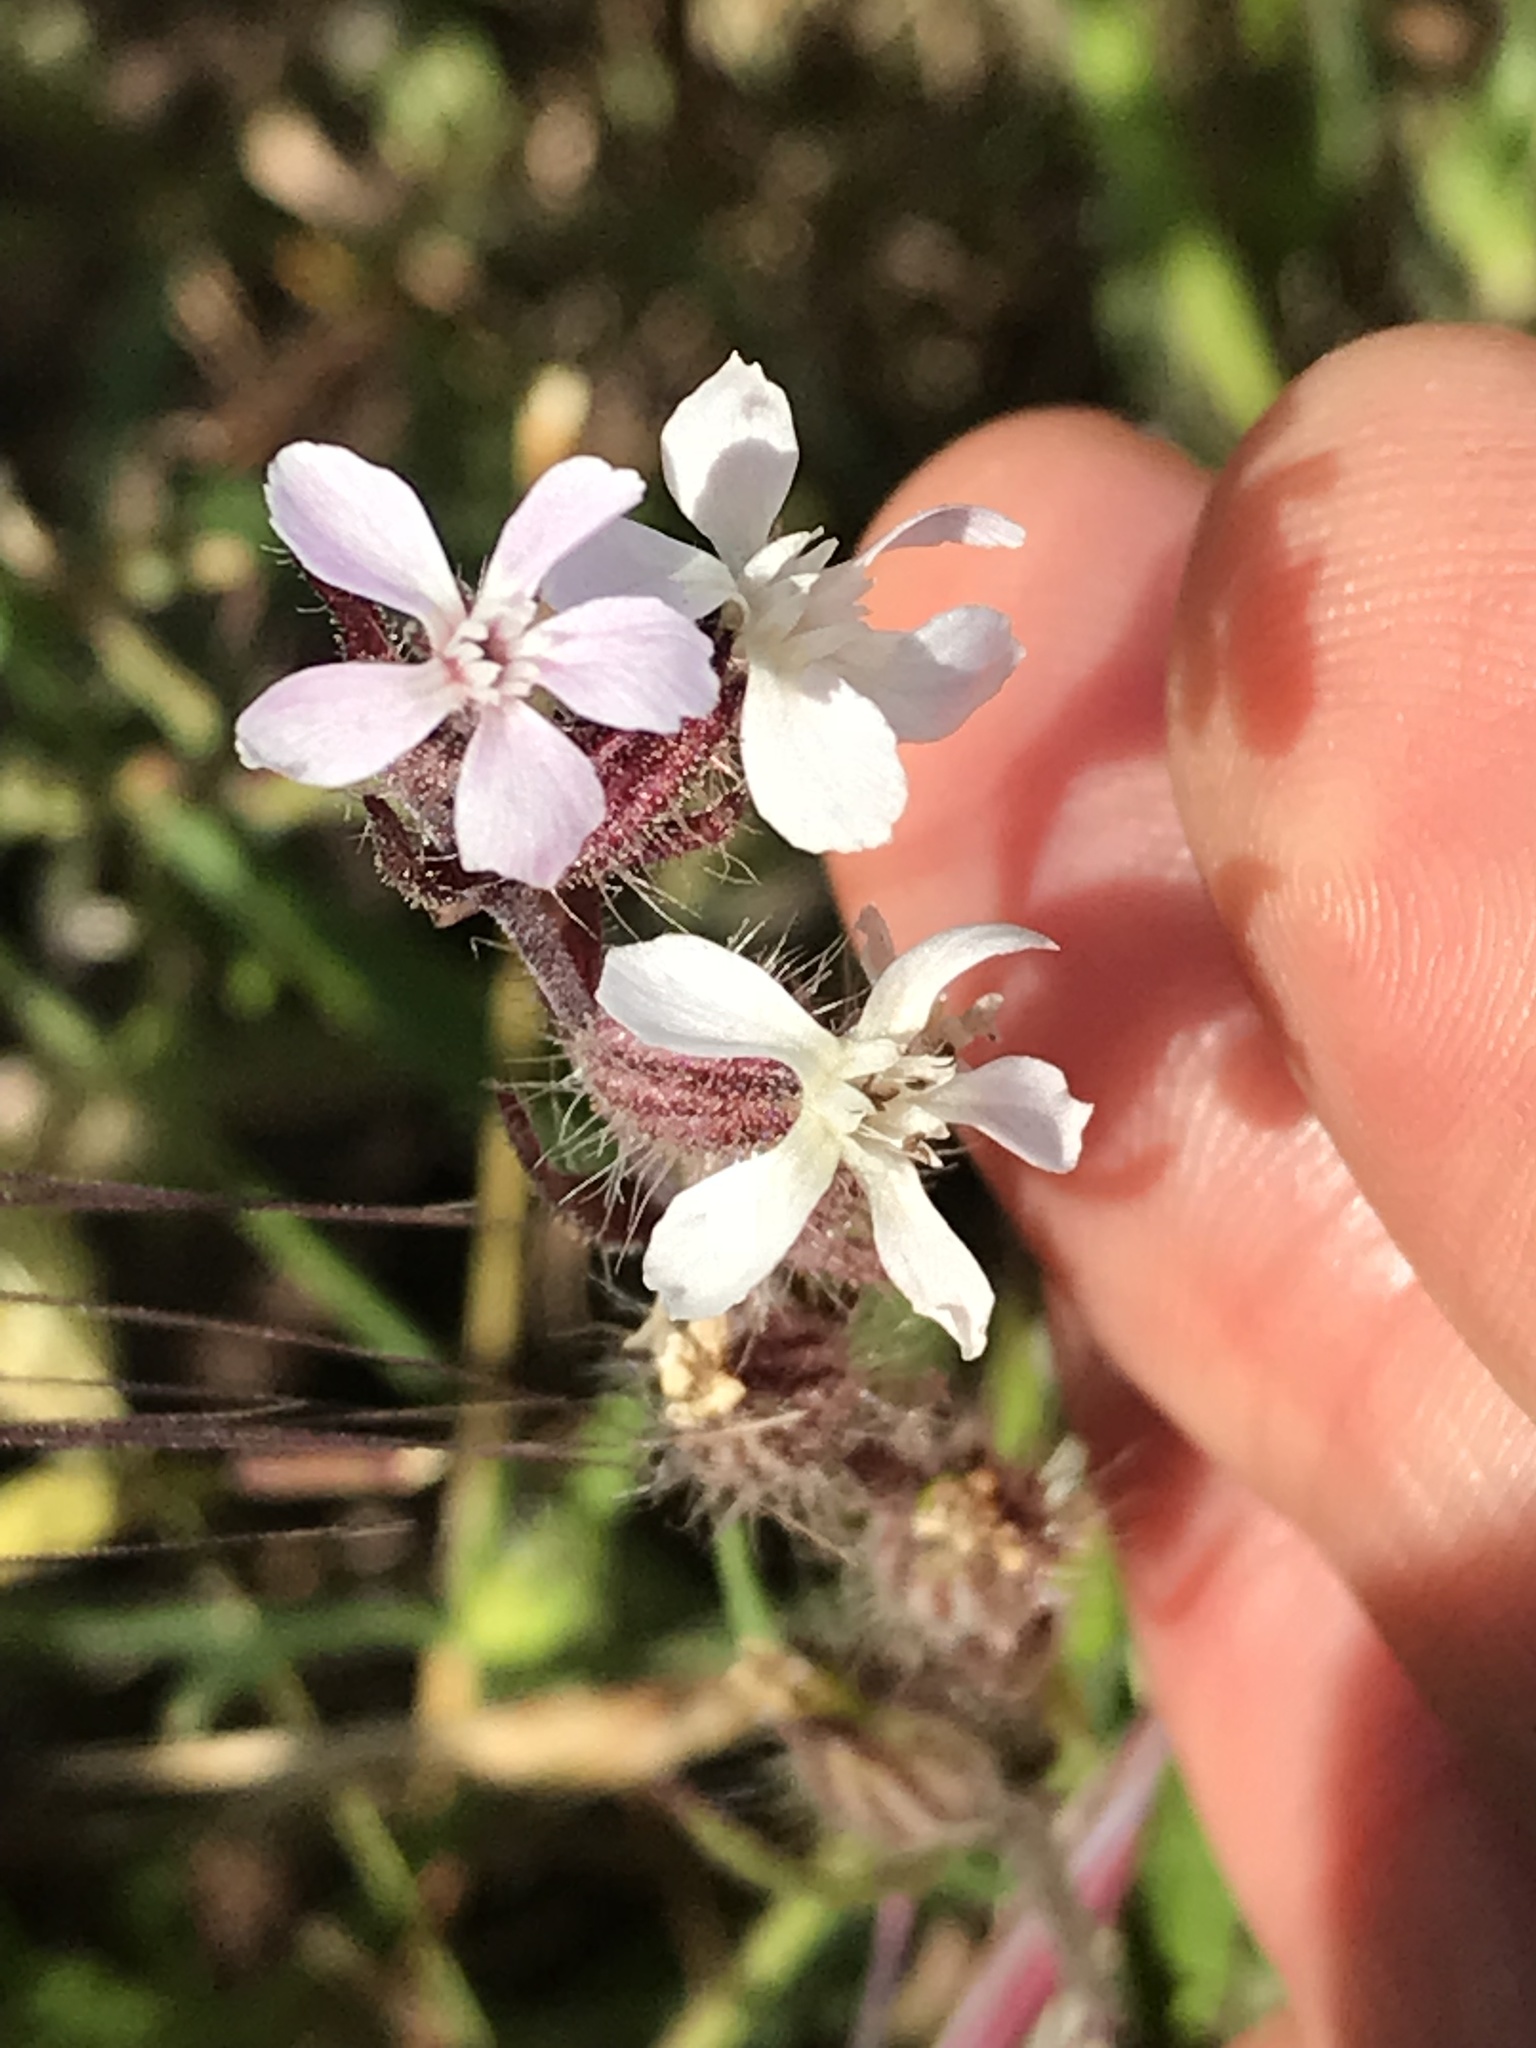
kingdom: Plantae
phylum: Tracheophyta
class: Magnoliopsida
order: Caryophyllales
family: Caryophyllaceae
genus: Silene
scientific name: Silene gallica
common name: Small-flowered catchfly
